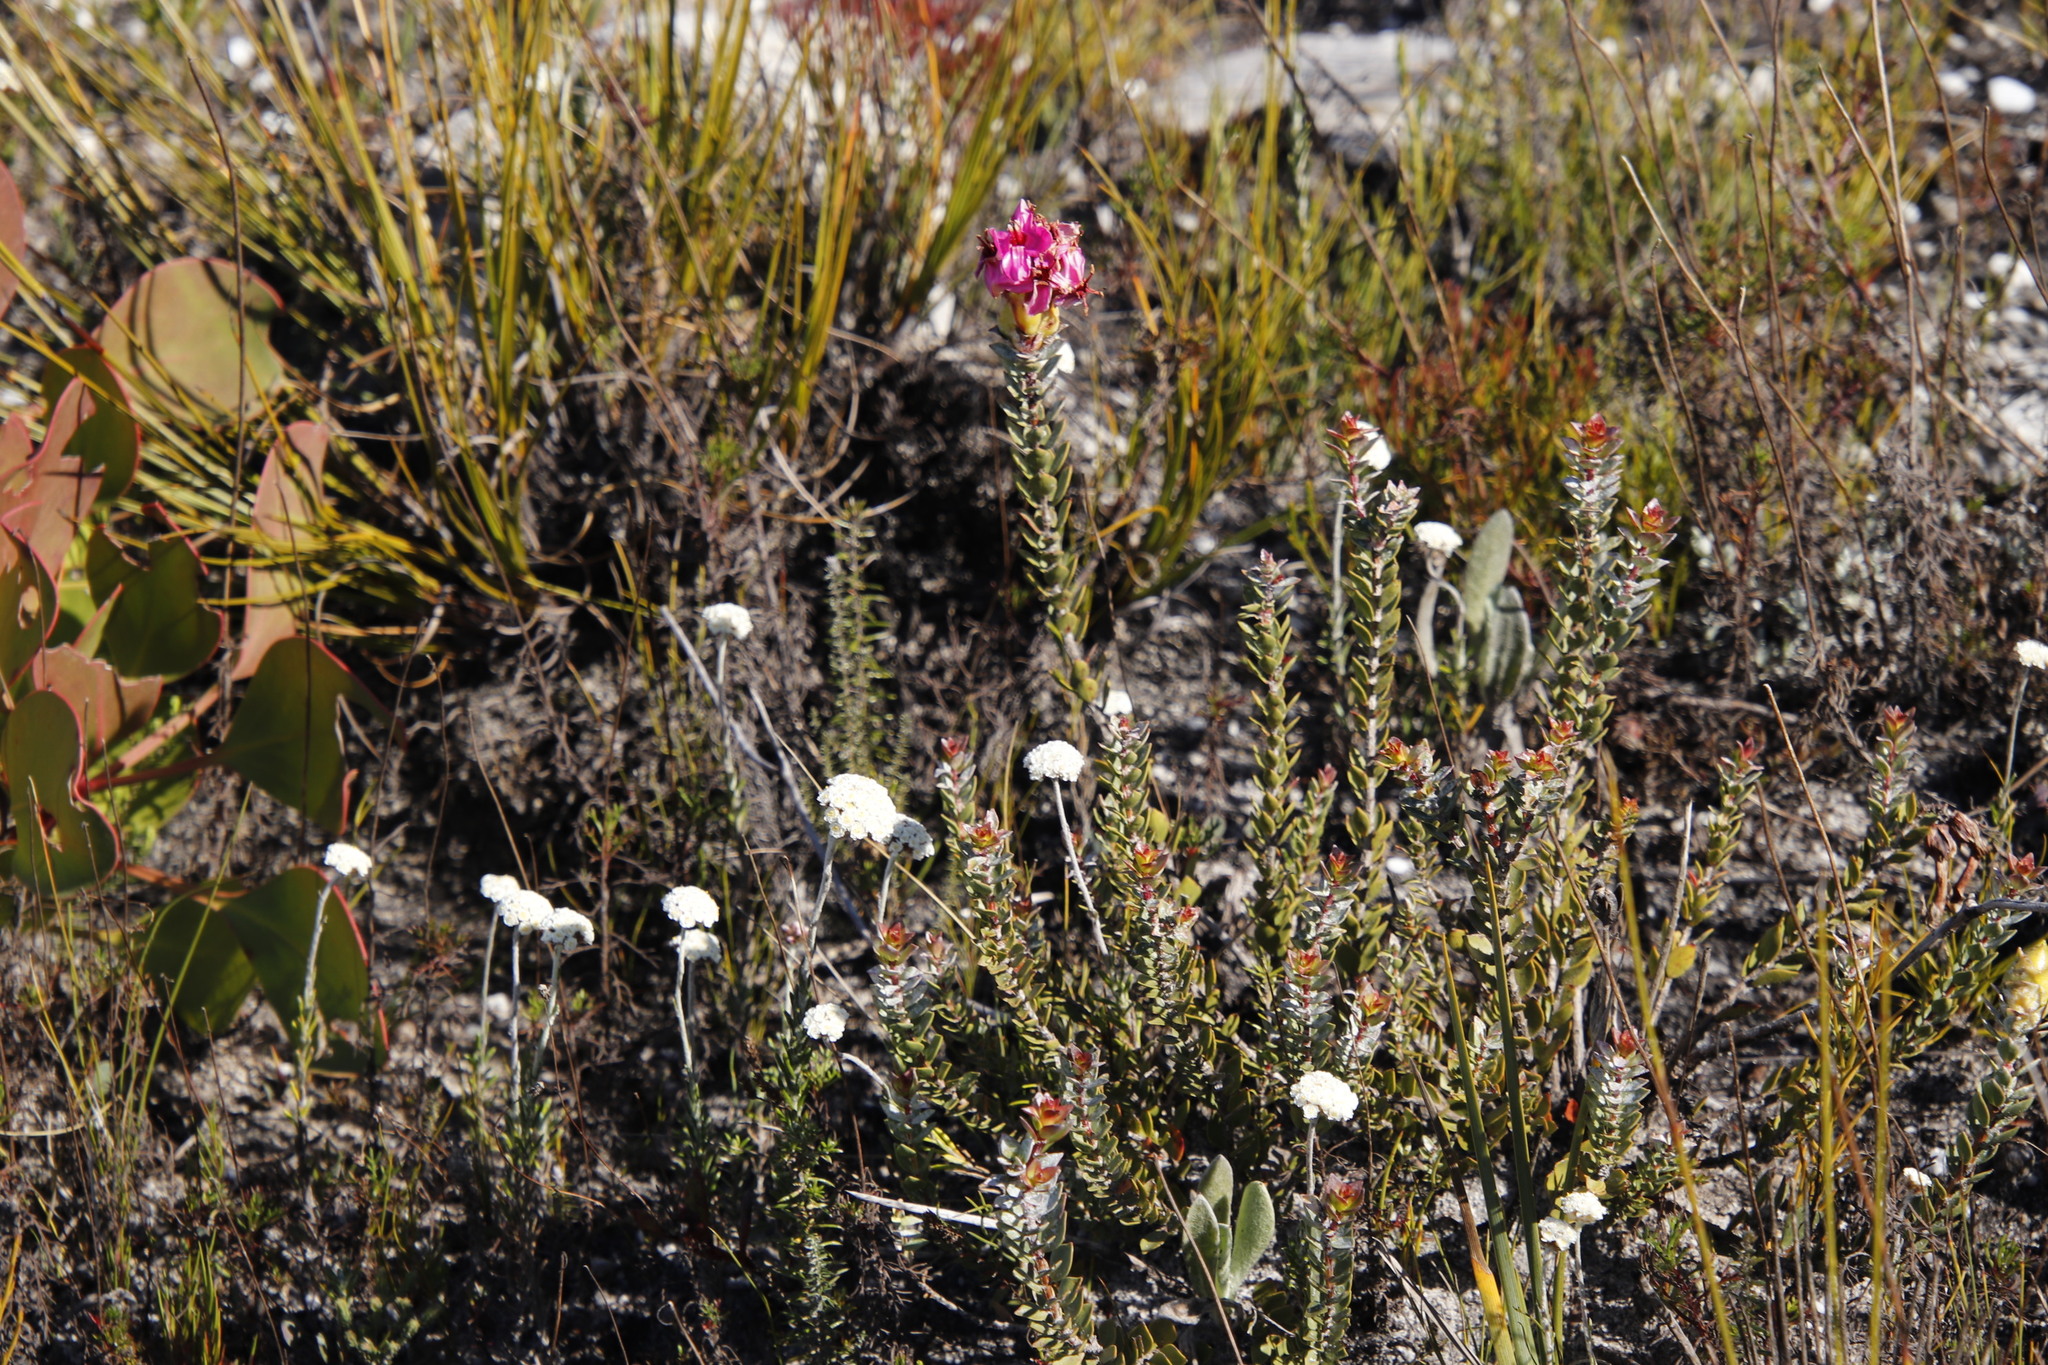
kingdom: Plantae
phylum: Tracheophyta
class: Magnoliopsida
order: Myrtales
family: Penaeaceae
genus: Saltera
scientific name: Saltera sarcocolla
